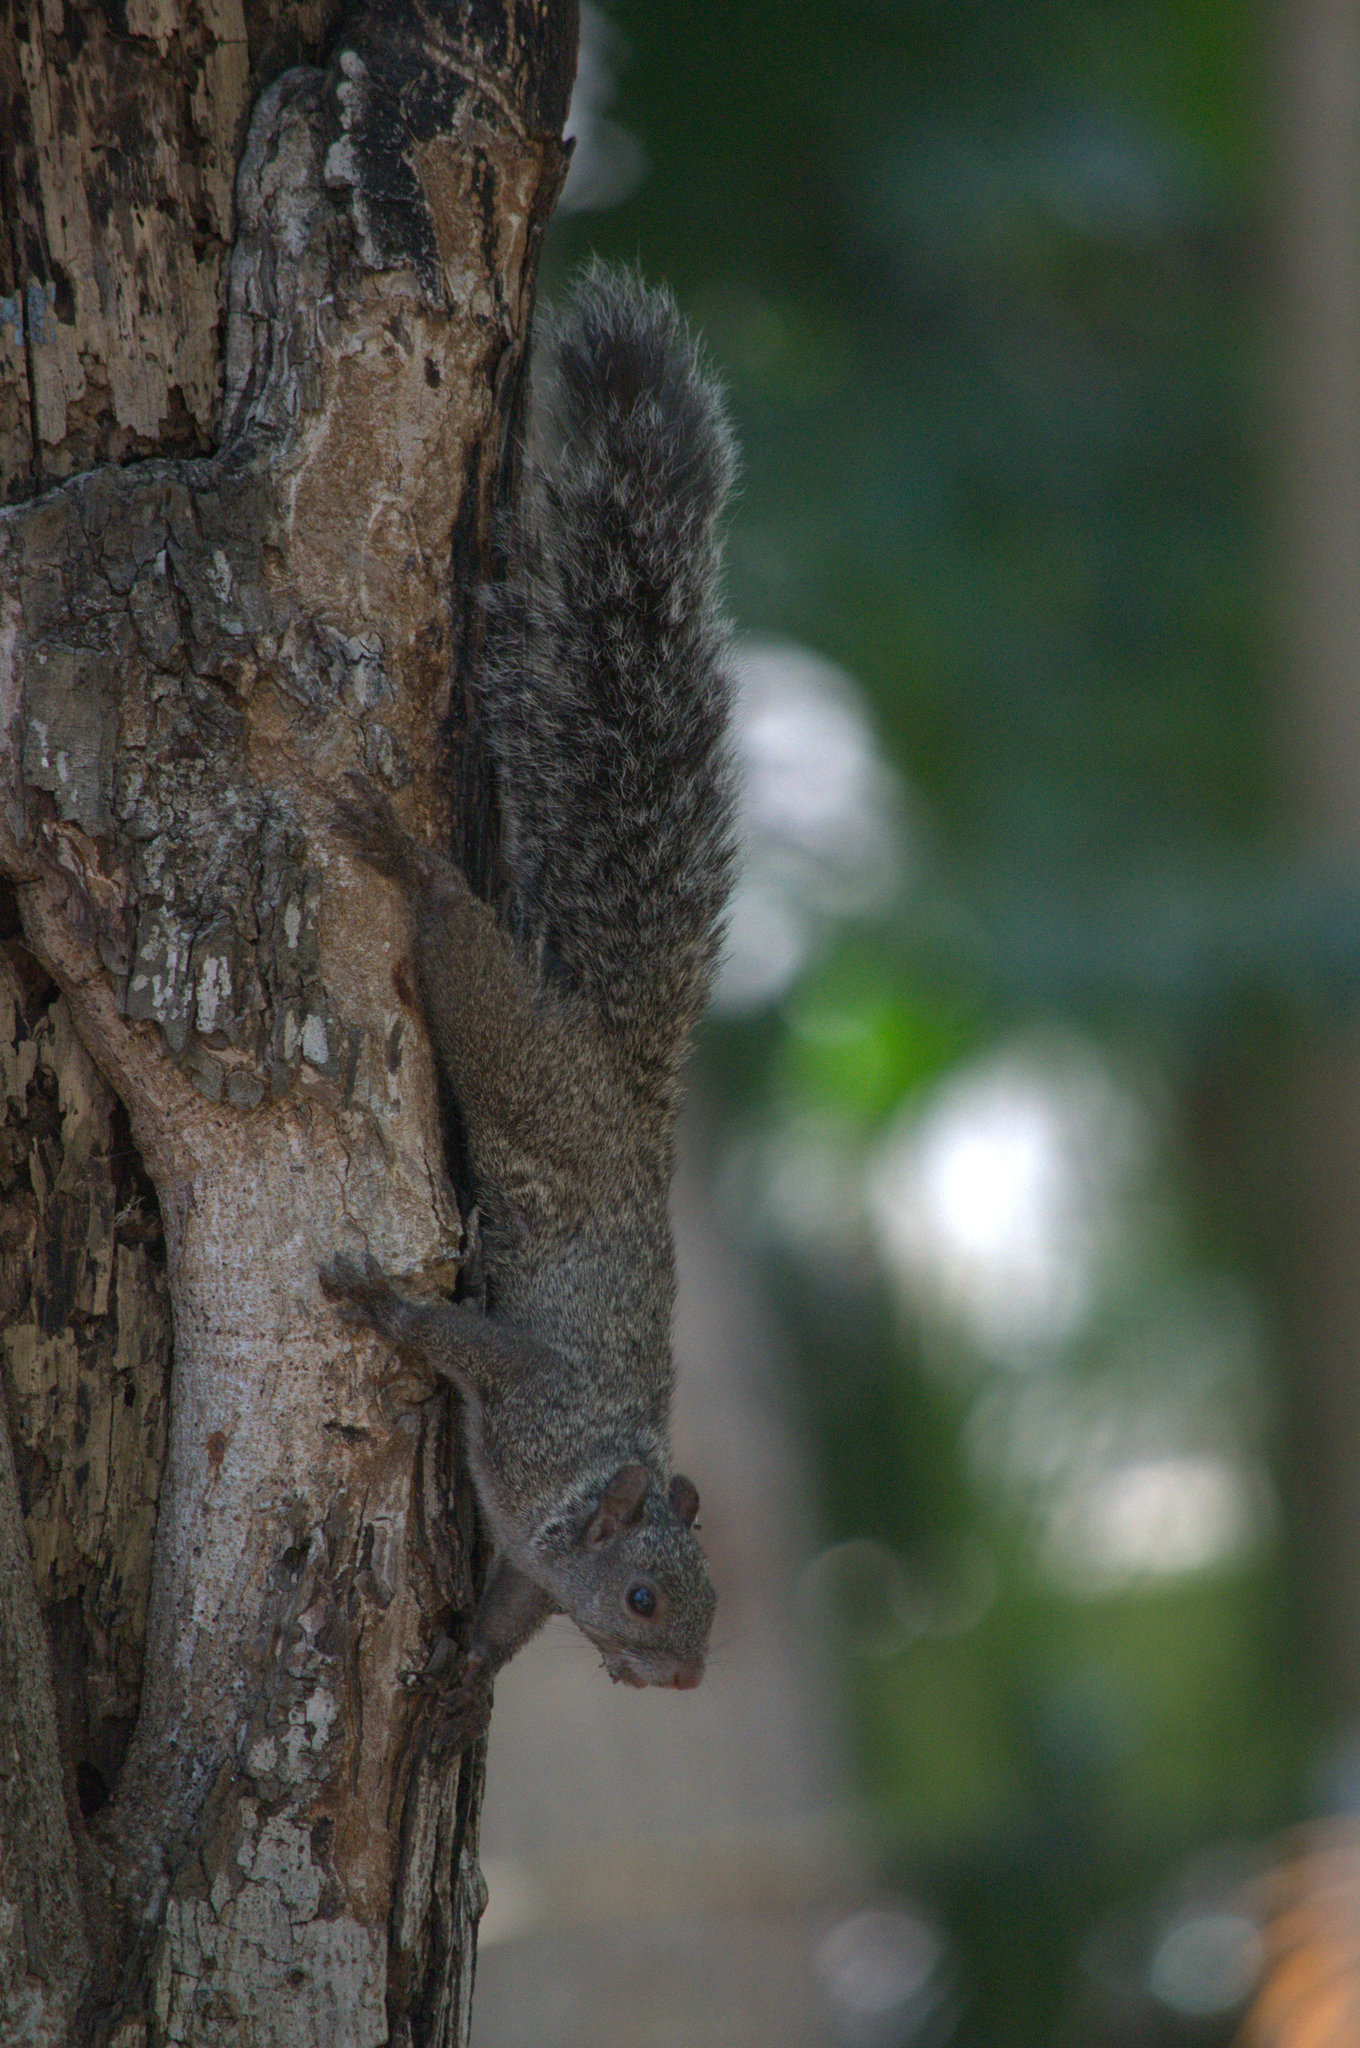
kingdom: Animalia
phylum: Chordata
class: Mammalia
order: Rodentia
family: Sciuridae
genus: Sciurus
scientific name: Sciurus yucatanensis
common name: Yucatan squirrel
